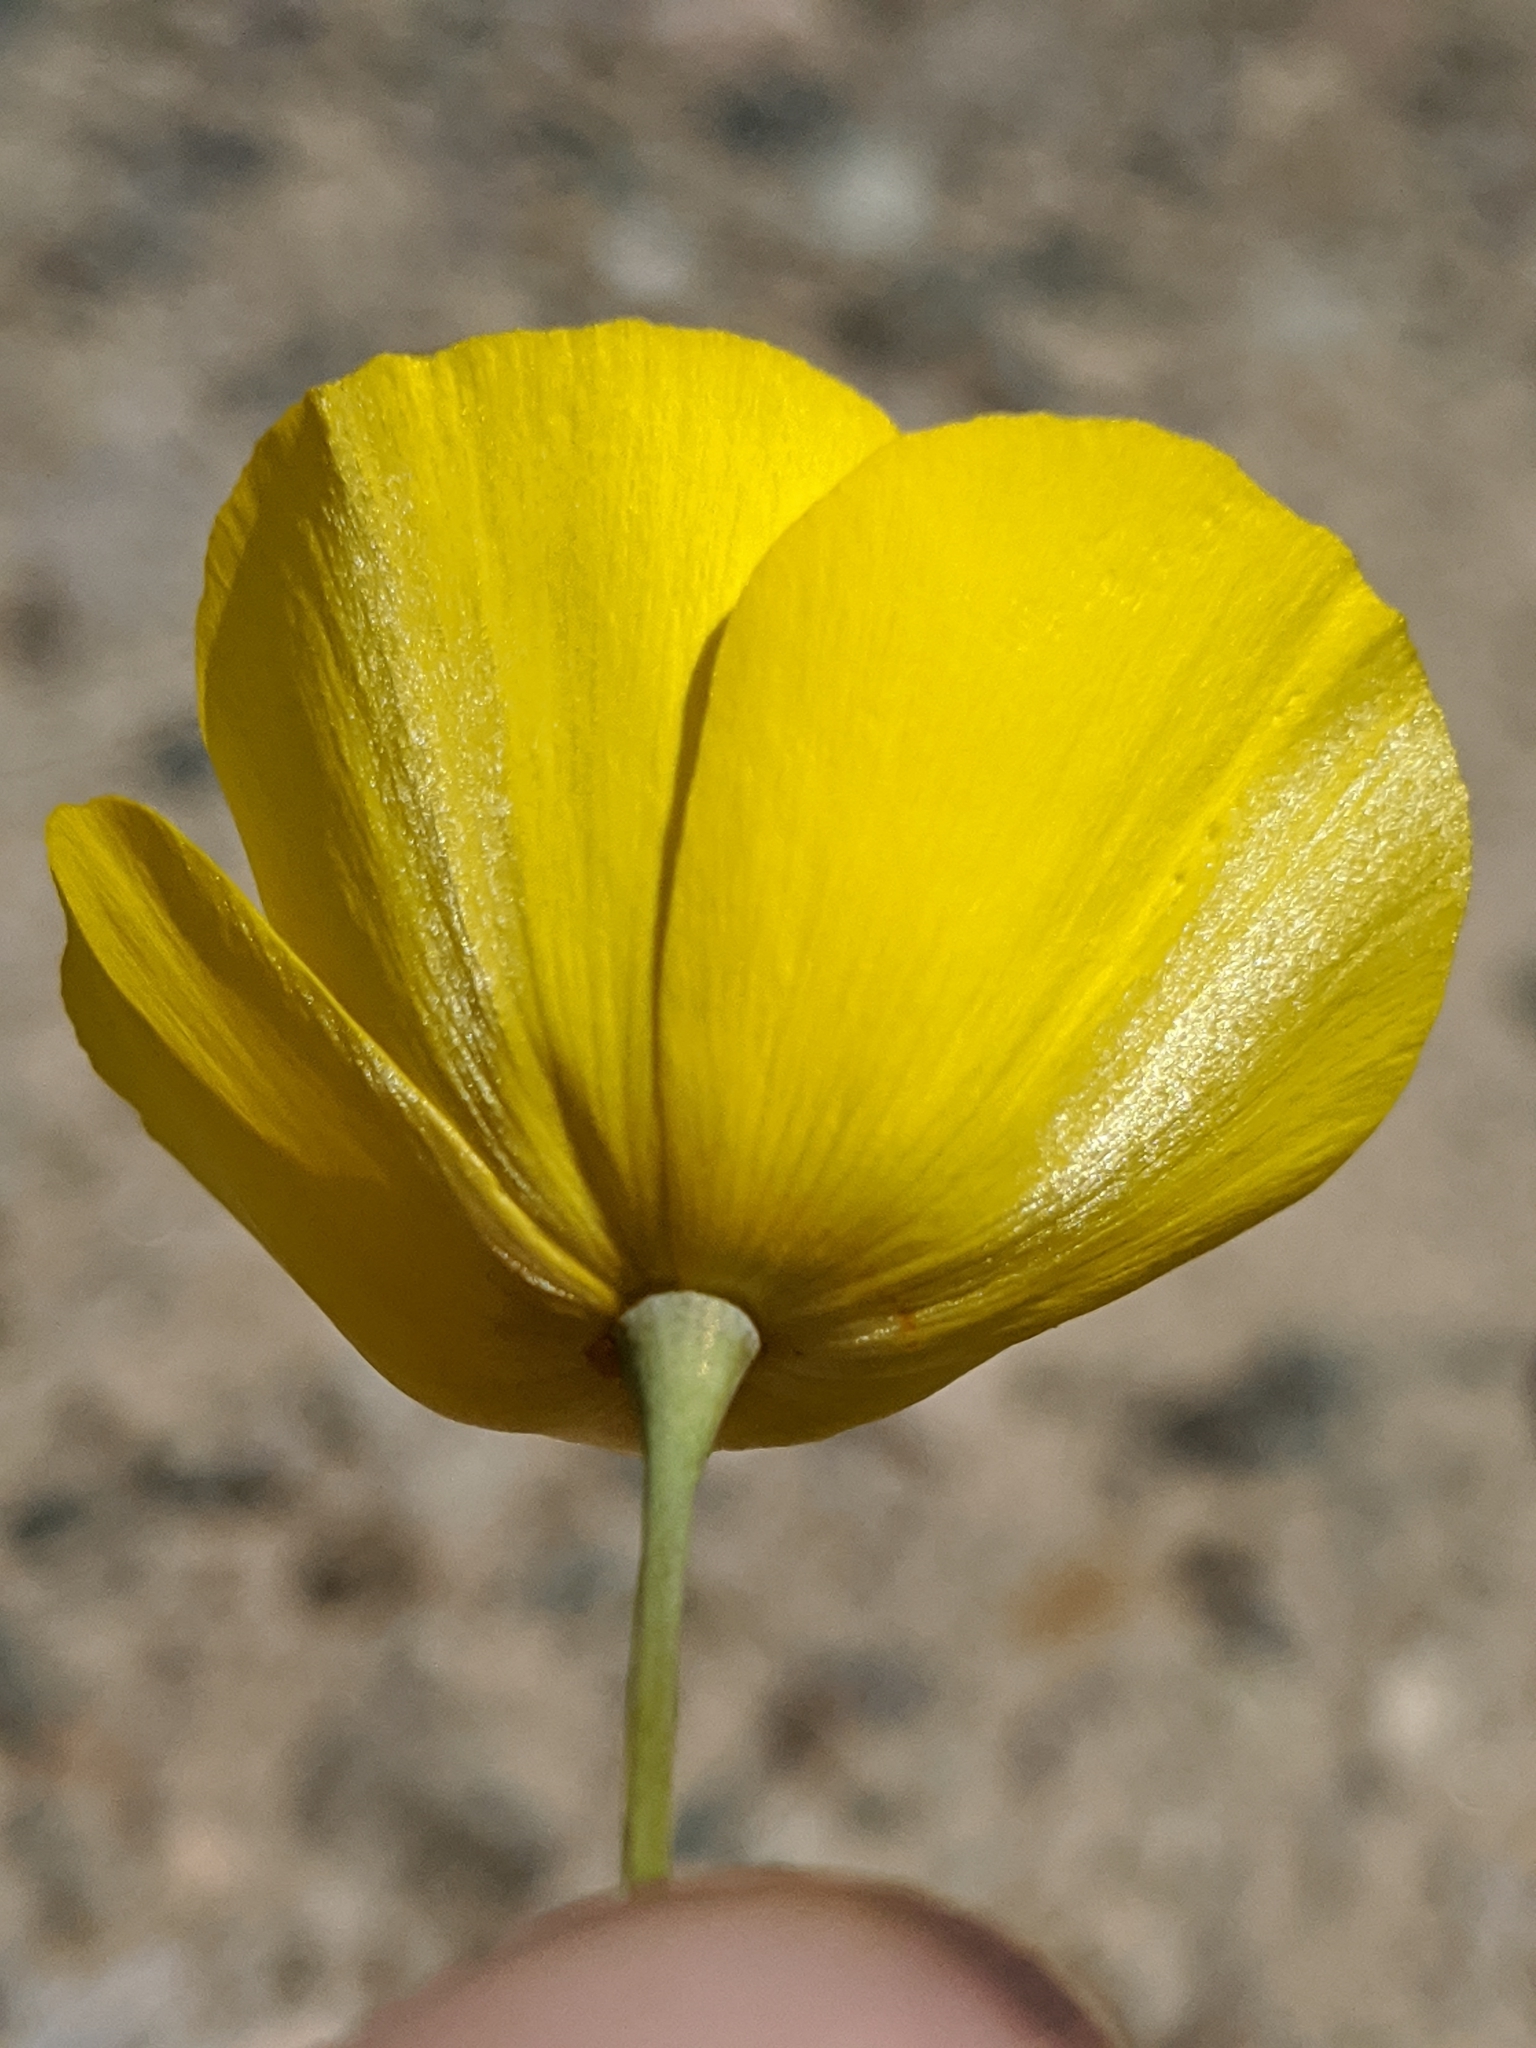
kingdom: Plantae
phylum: Tracheophyta
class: Magnoliopsida
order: Ranunculales
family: Papaveraceae
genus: Eschscholzia
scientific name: Eschscholzia glyptosperma
